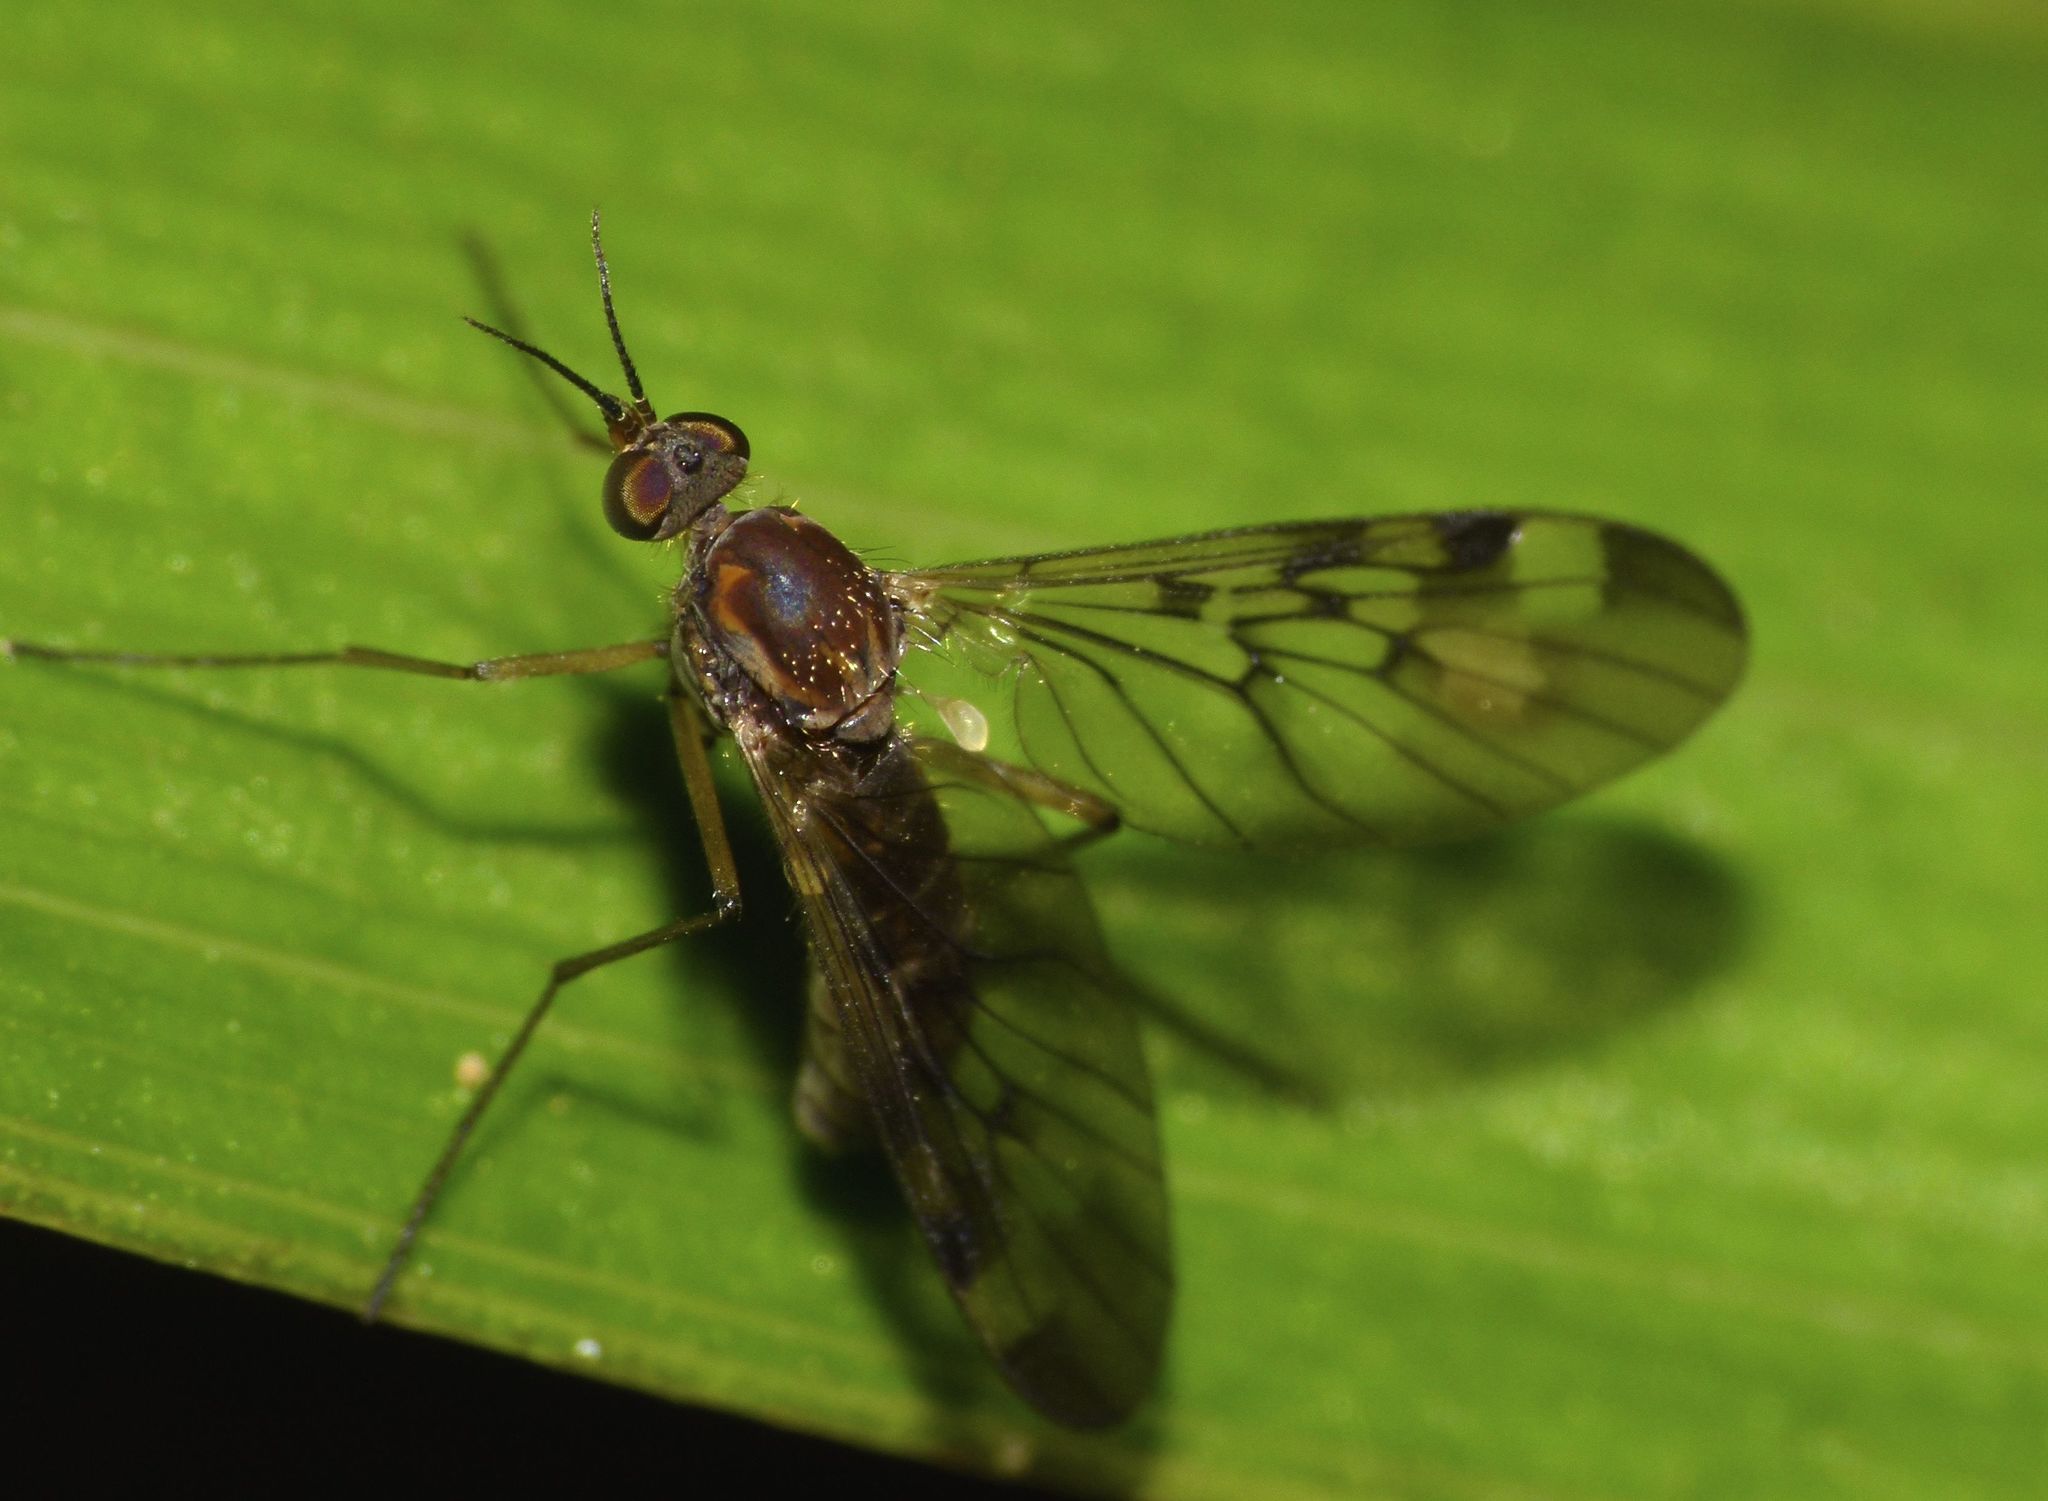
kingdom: Animalia
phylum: Arthropoda
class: Insecta
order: Diptera
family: Anisopodidae
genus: Sylvicola
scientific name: Sylvicola undulatus
